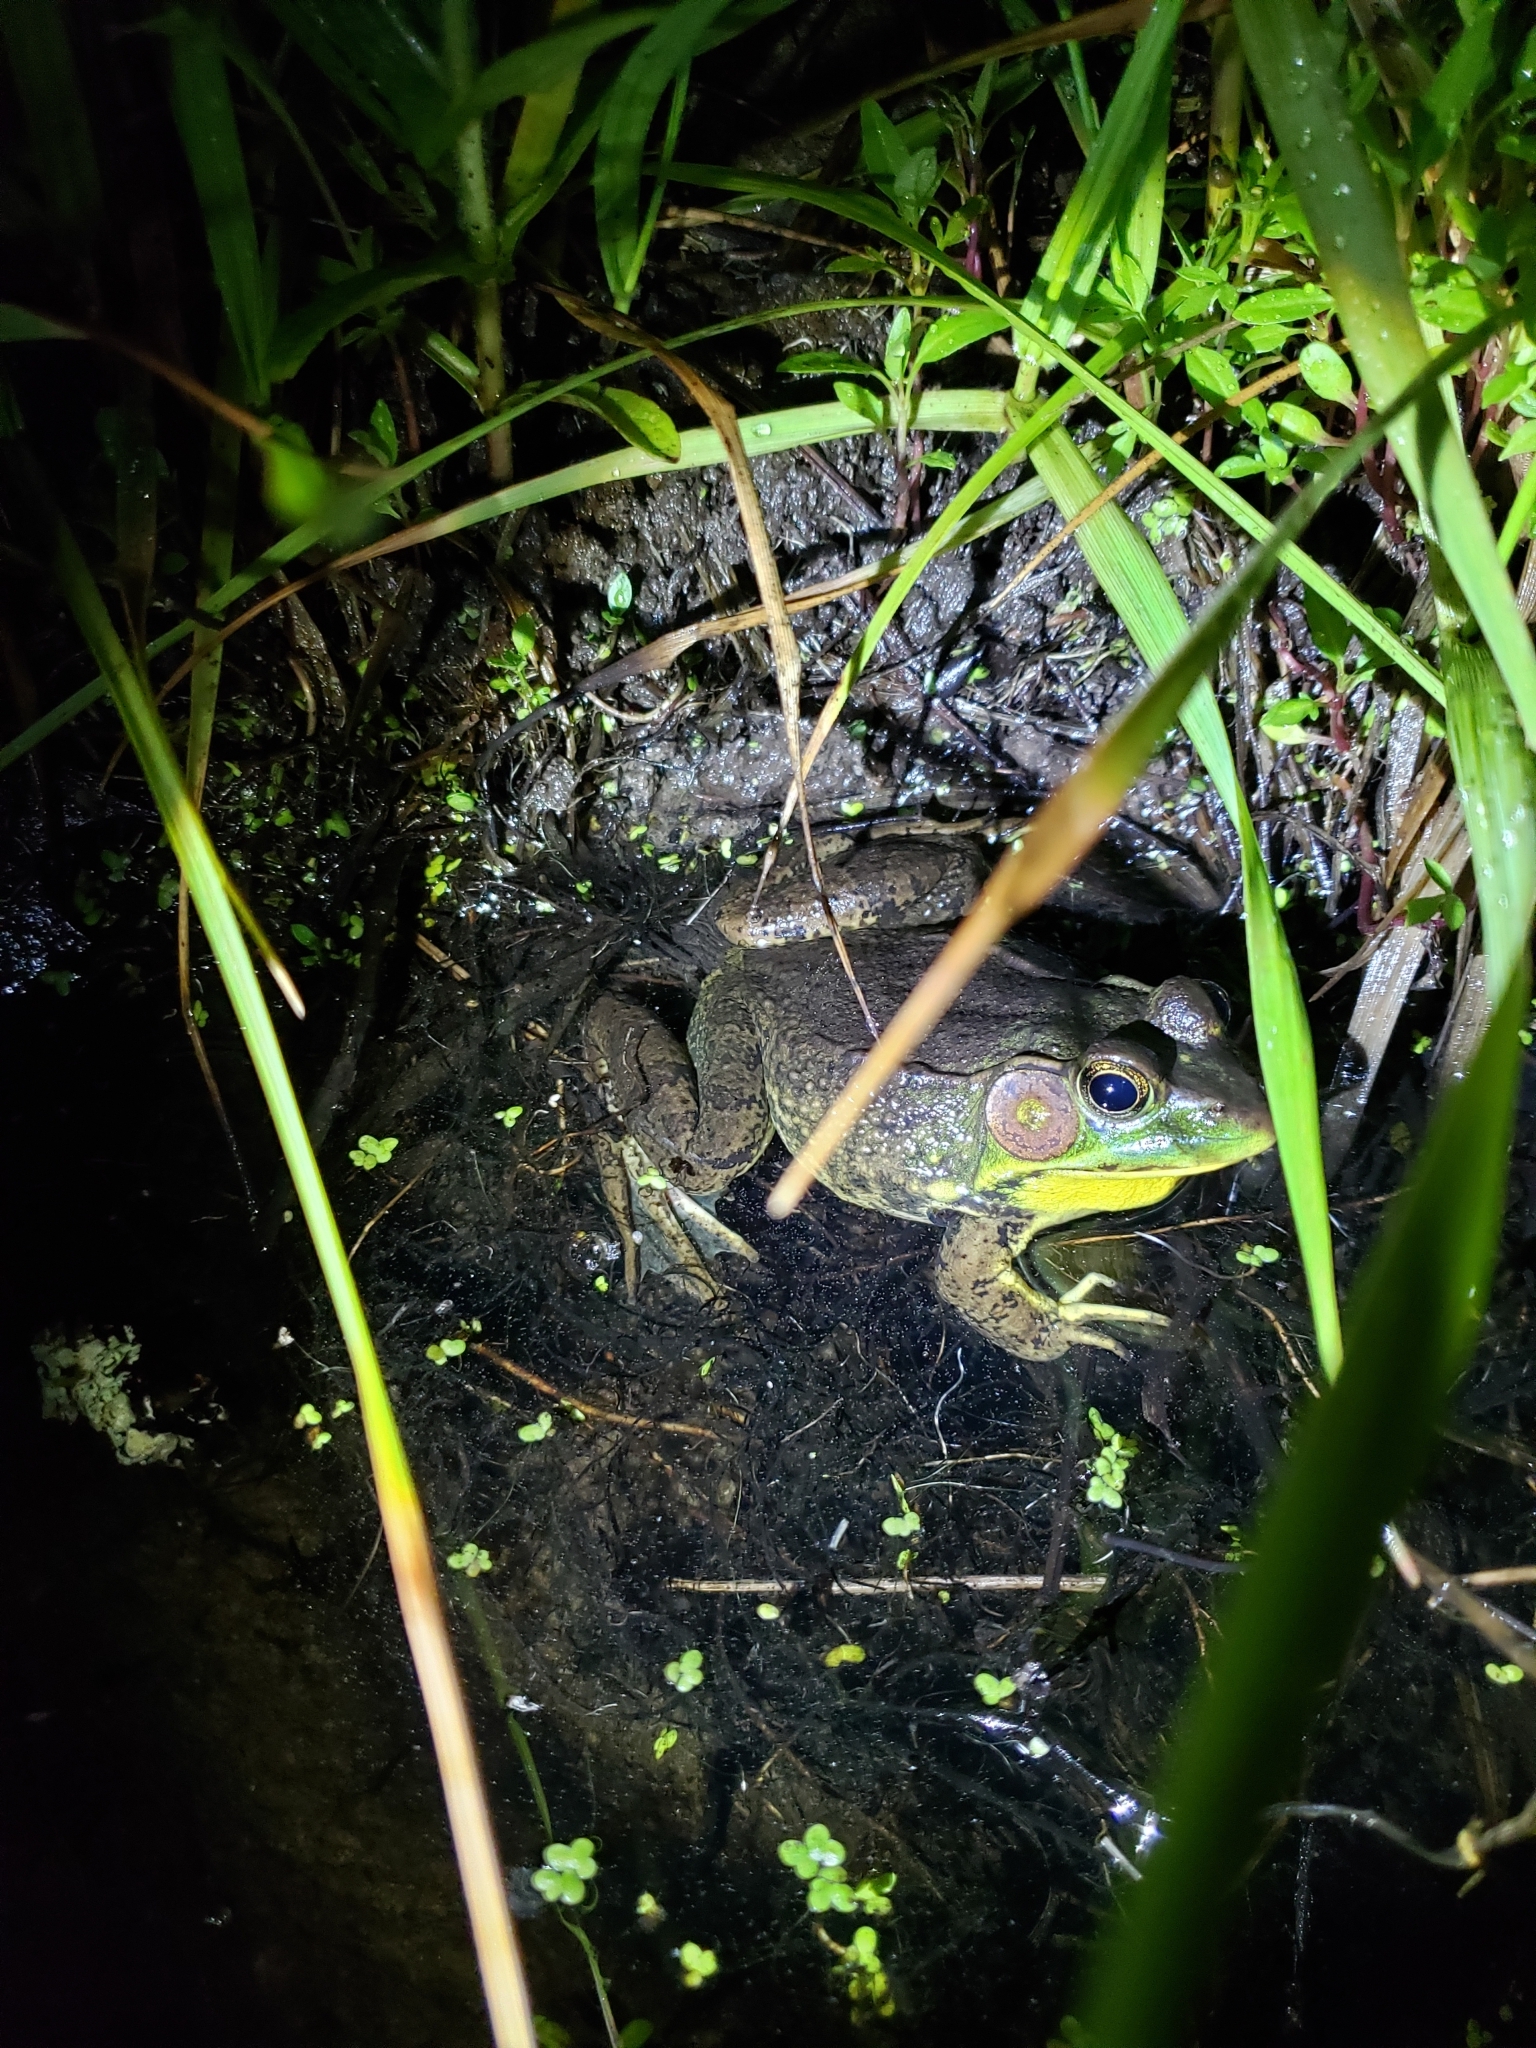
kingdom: Animalia
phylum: Chordata
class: Amphibia
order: Anura
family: Ranidae
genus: Lithobates
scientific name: Lithobates clamitans
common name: Green frog
